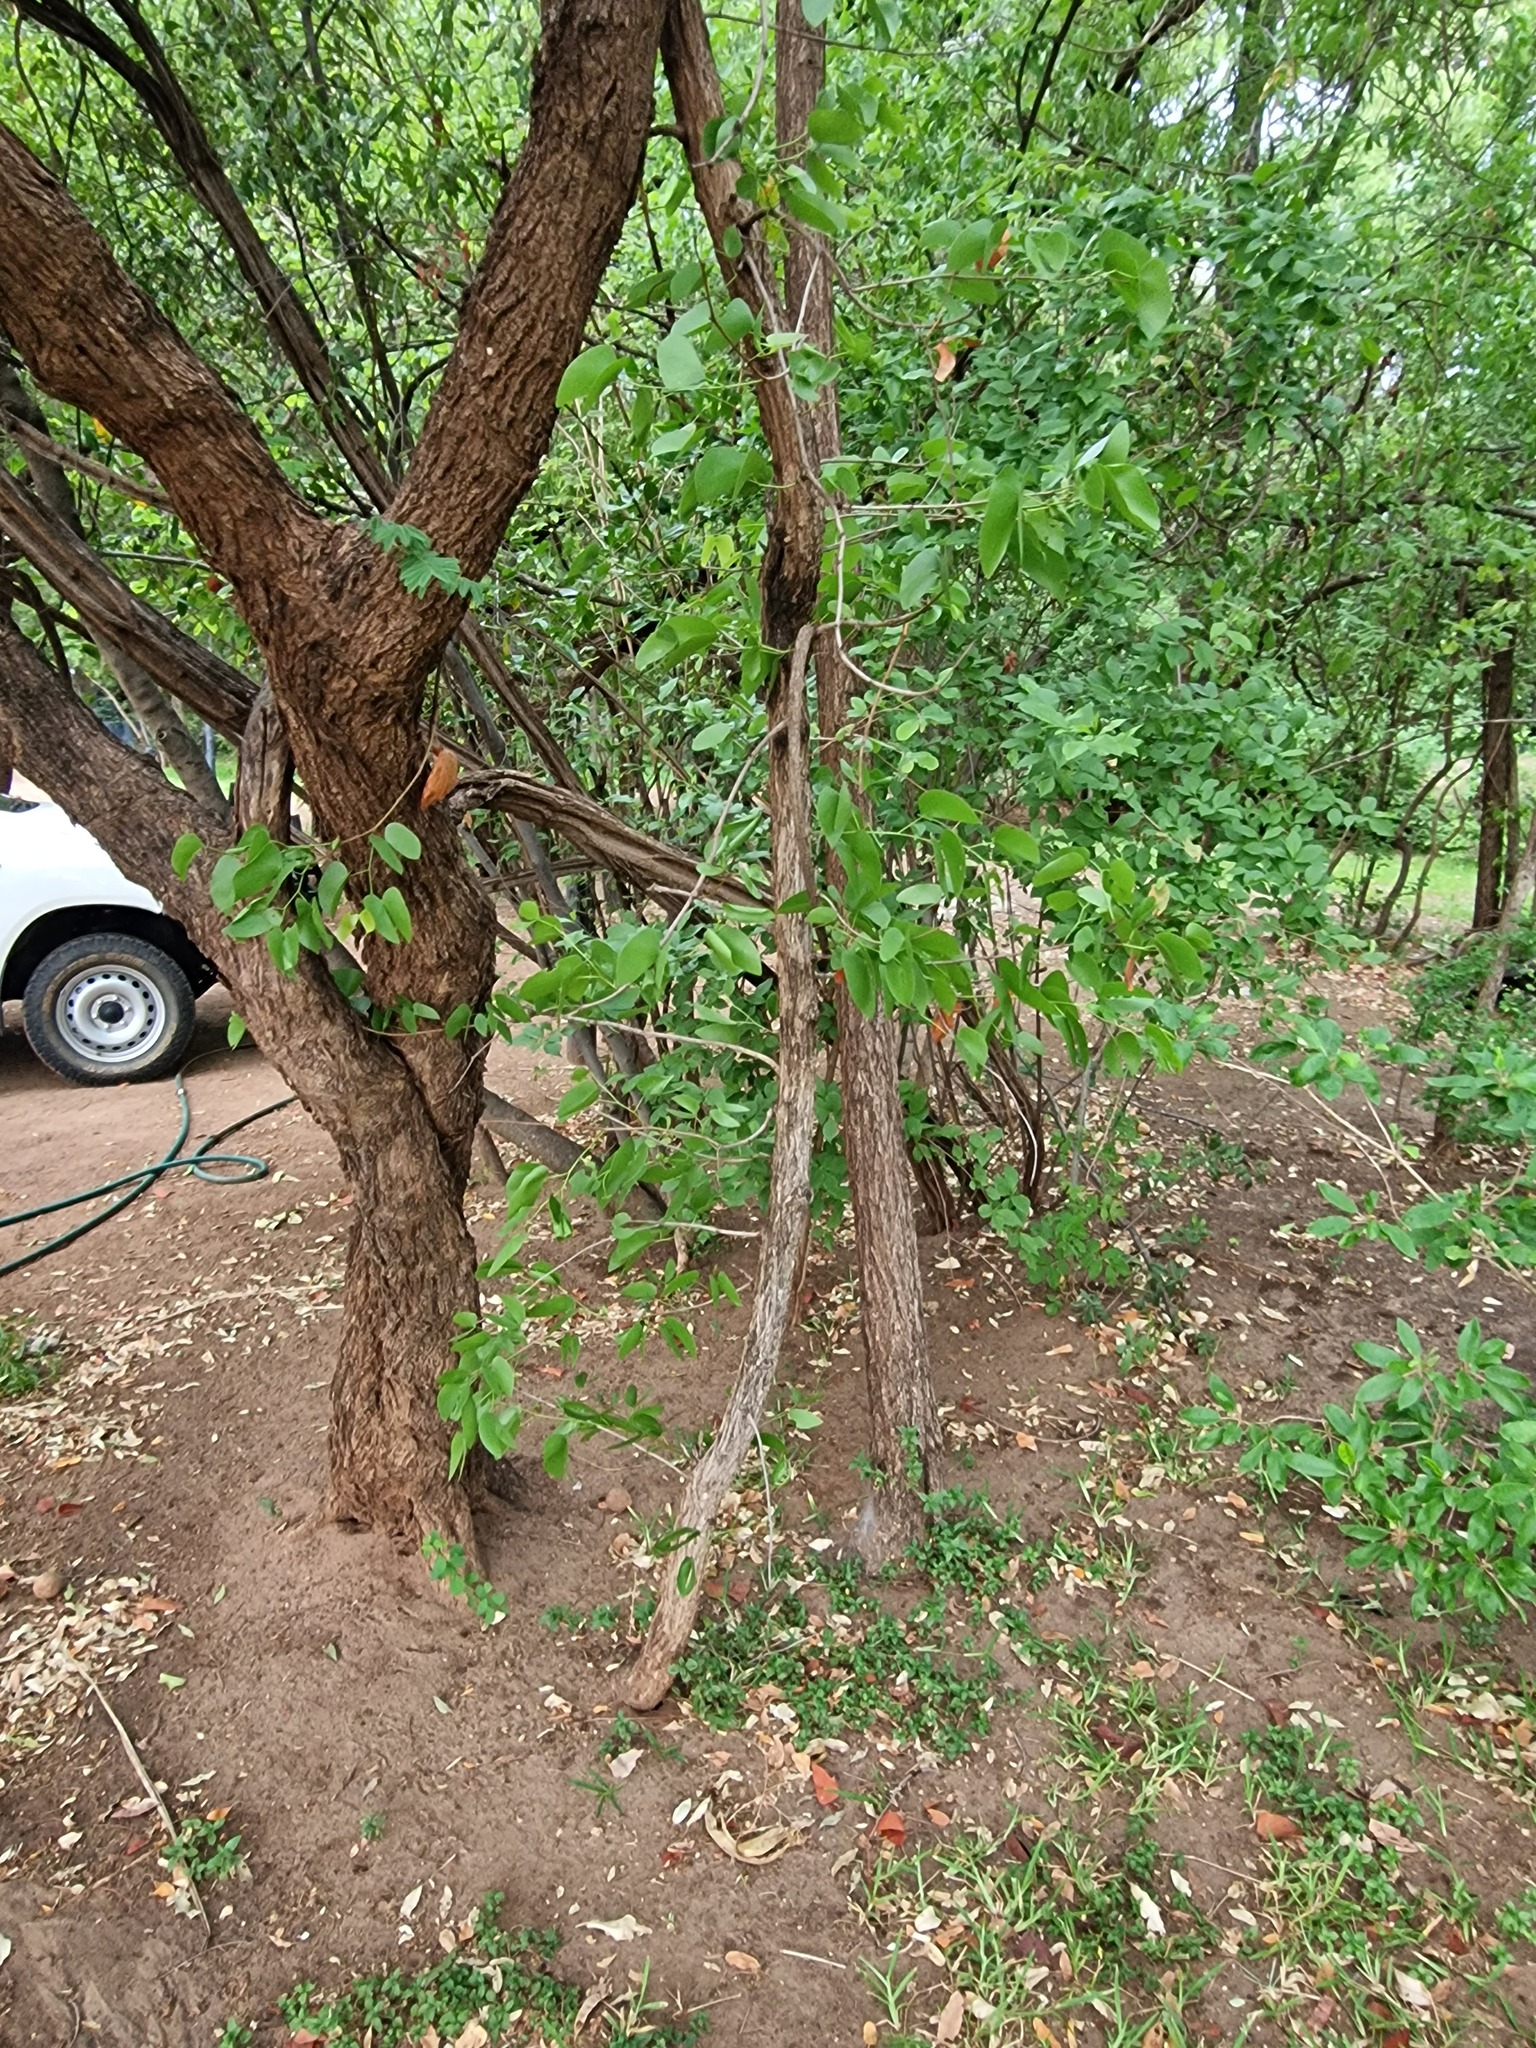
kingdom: Plantae
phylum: Tracheophyta
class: Magnoliopsida
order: Fabales
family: Fabaceae
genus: Colophospermum
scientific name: Colophospermum mopane
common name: Mopane
